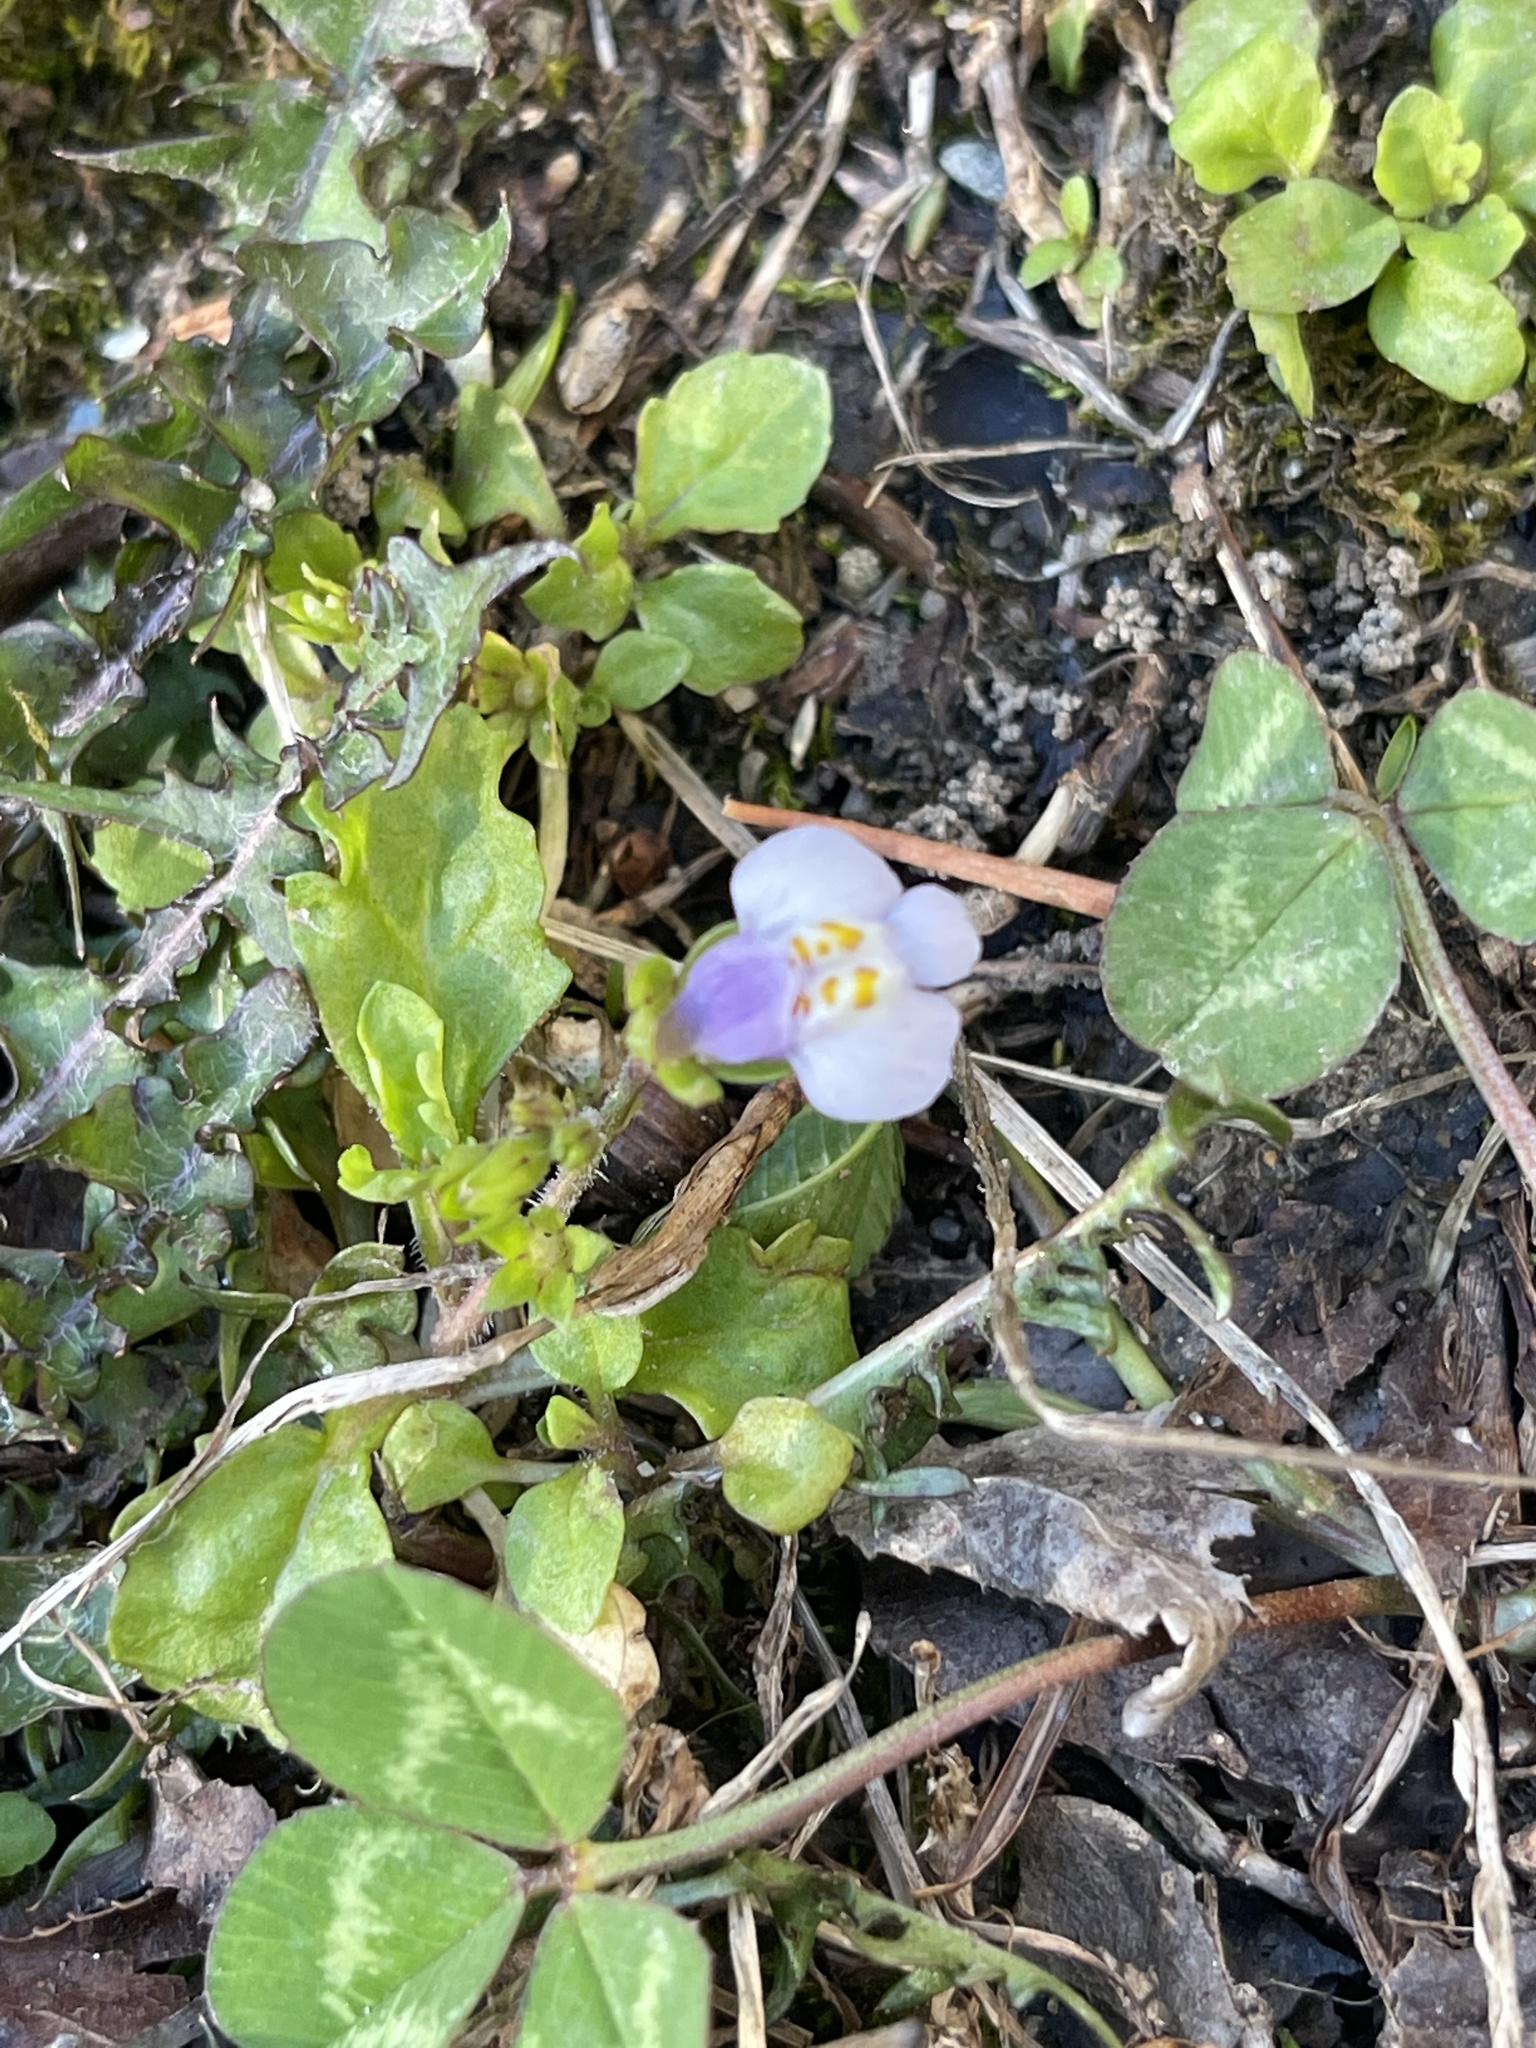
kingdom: Plantae
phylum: Tracheophyta
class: Magnoliopsida
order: Lamiales
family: Mazaceae
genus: Mazus
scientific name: Mazus pumilus
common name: Japanese mazus
